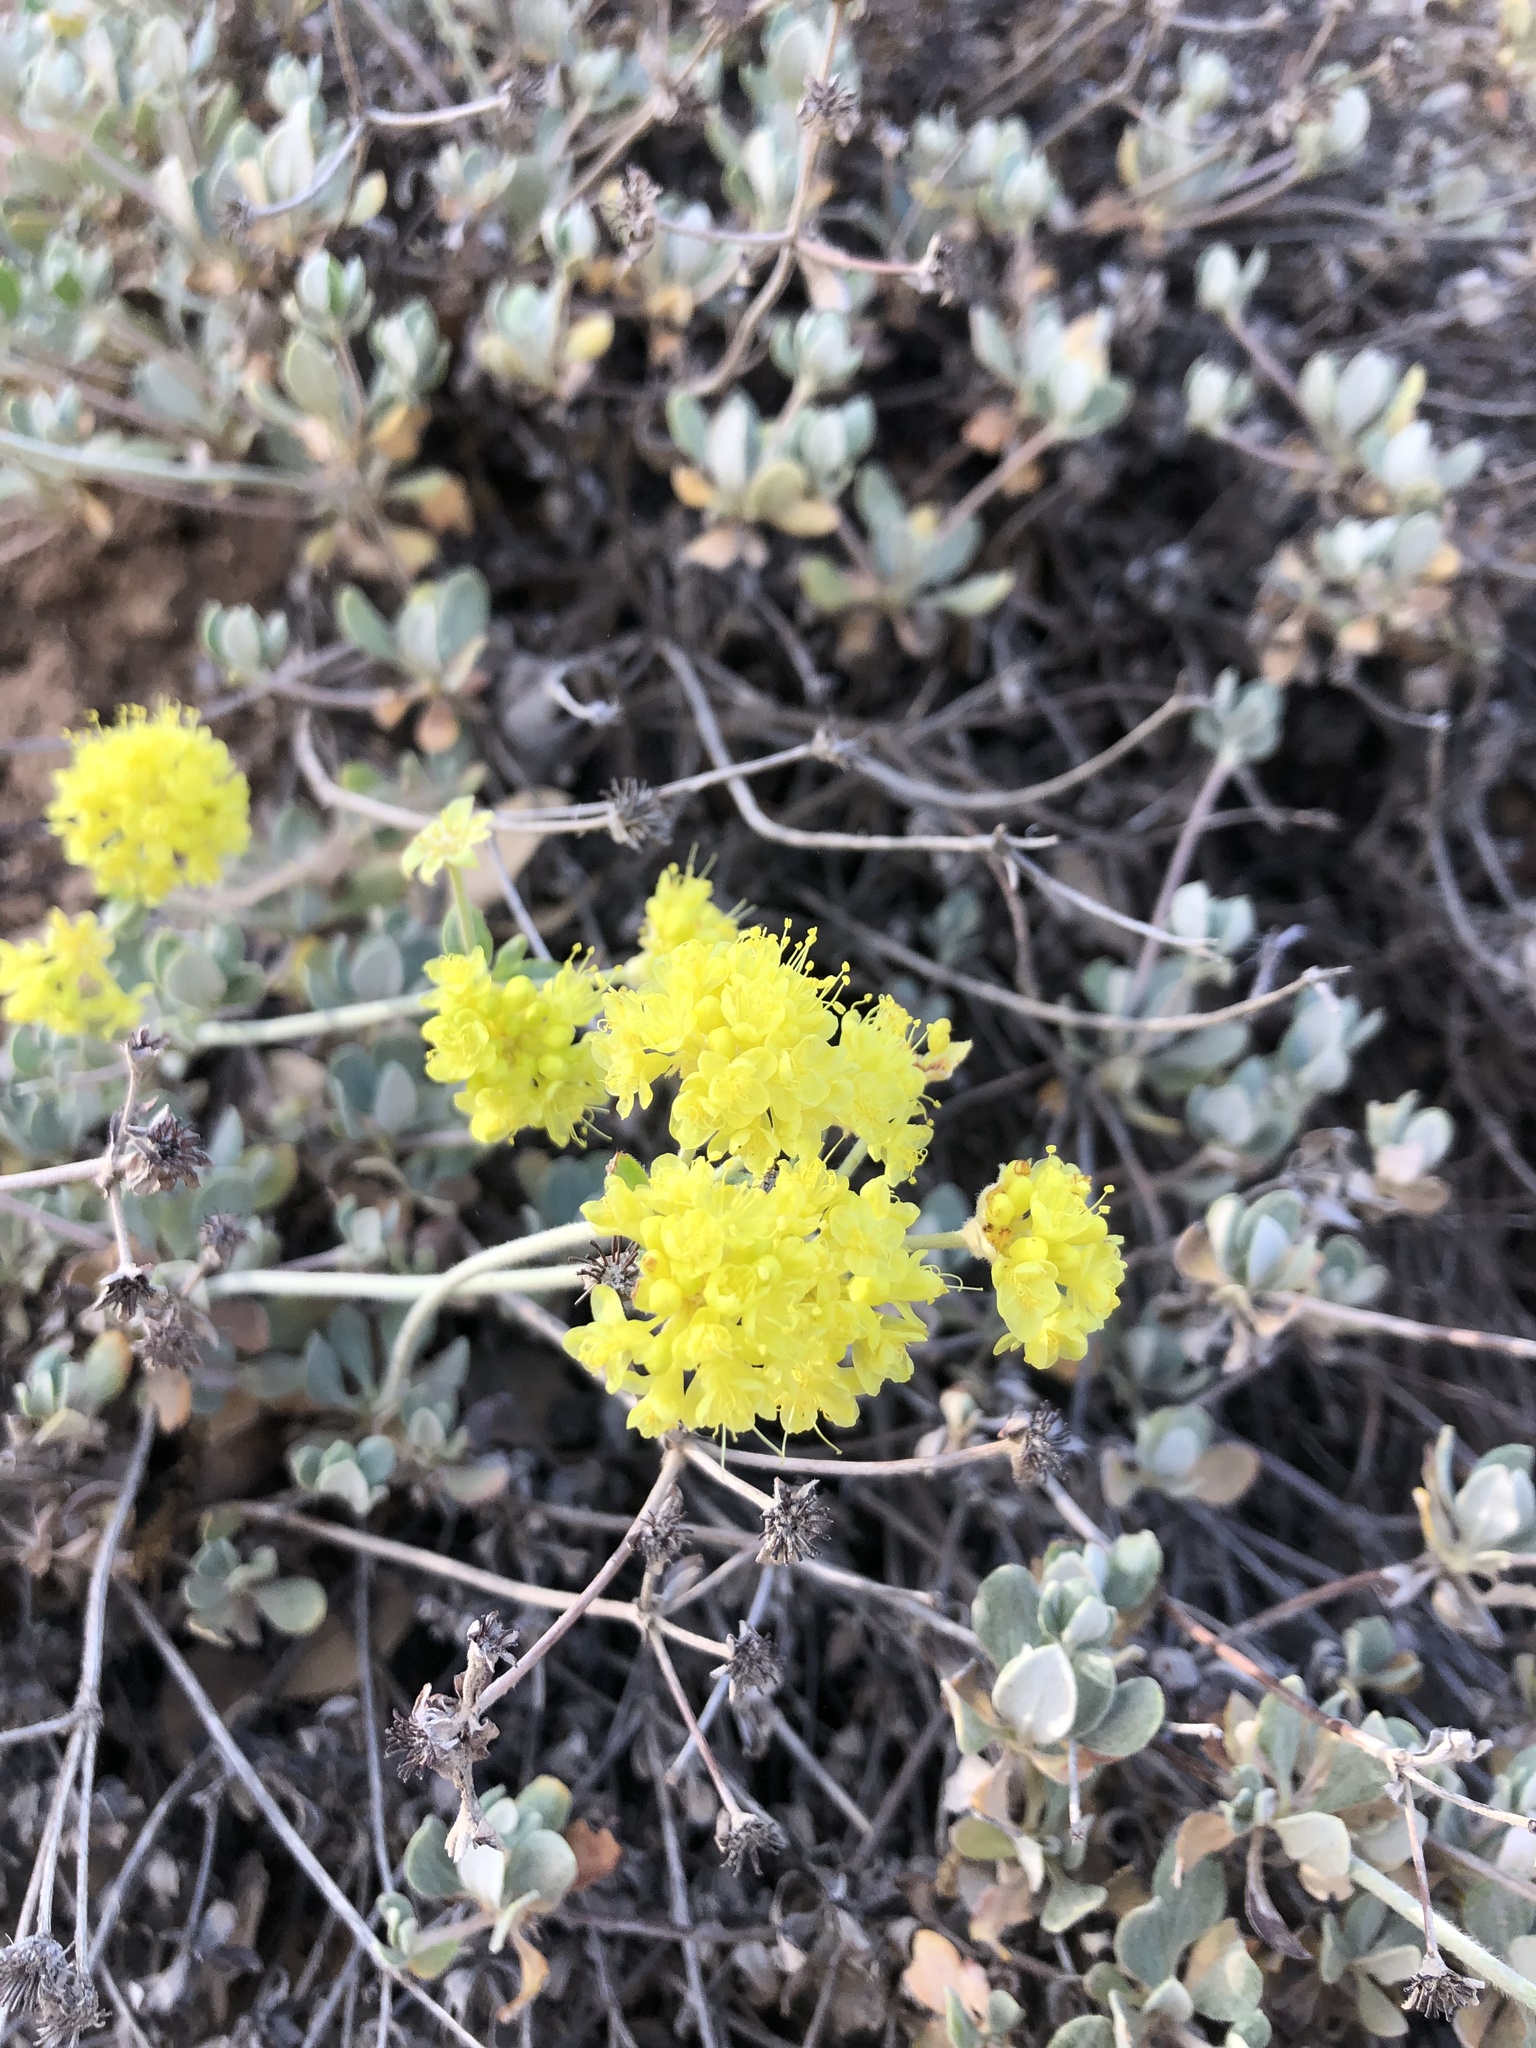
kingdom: Plantae
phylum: Tracheophyta
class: Magnoliopsida
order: Caryophyllales
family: Polygonaceae
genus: Eriogonum
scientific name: Eriogonum umbellatum
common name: Sulfur-buckwheat
